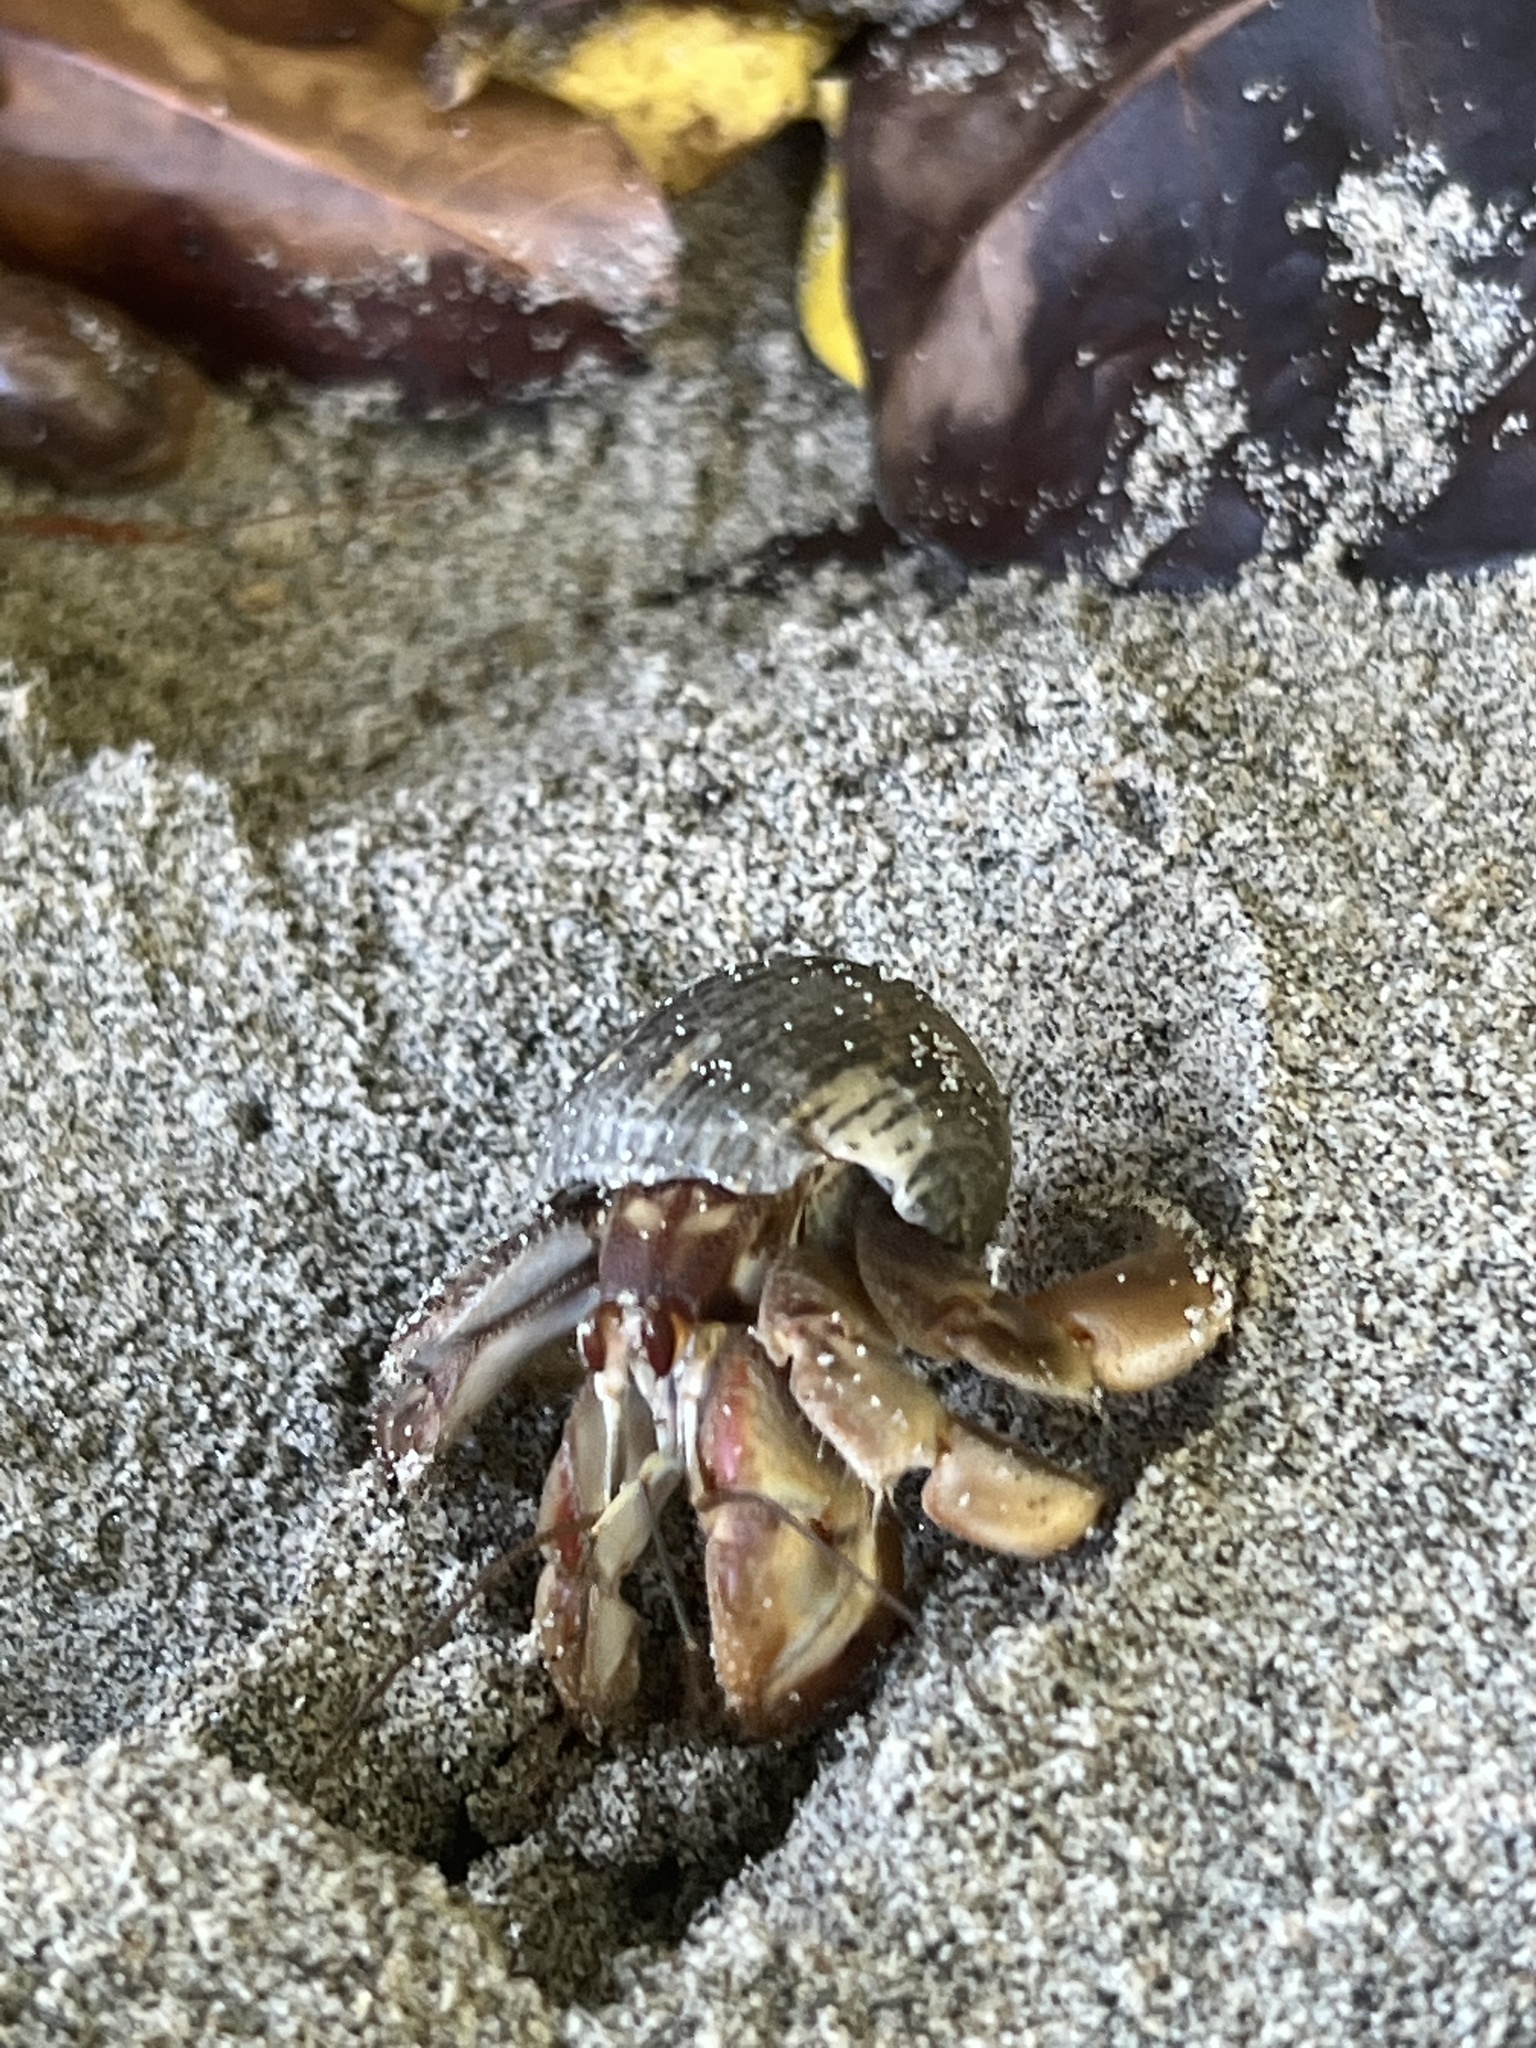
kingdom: Animalia
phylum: Arthropoda
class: Malacostraca
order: Decapoda
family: Coenobitidae
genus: Coenobita
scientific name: Coenobita compressus
